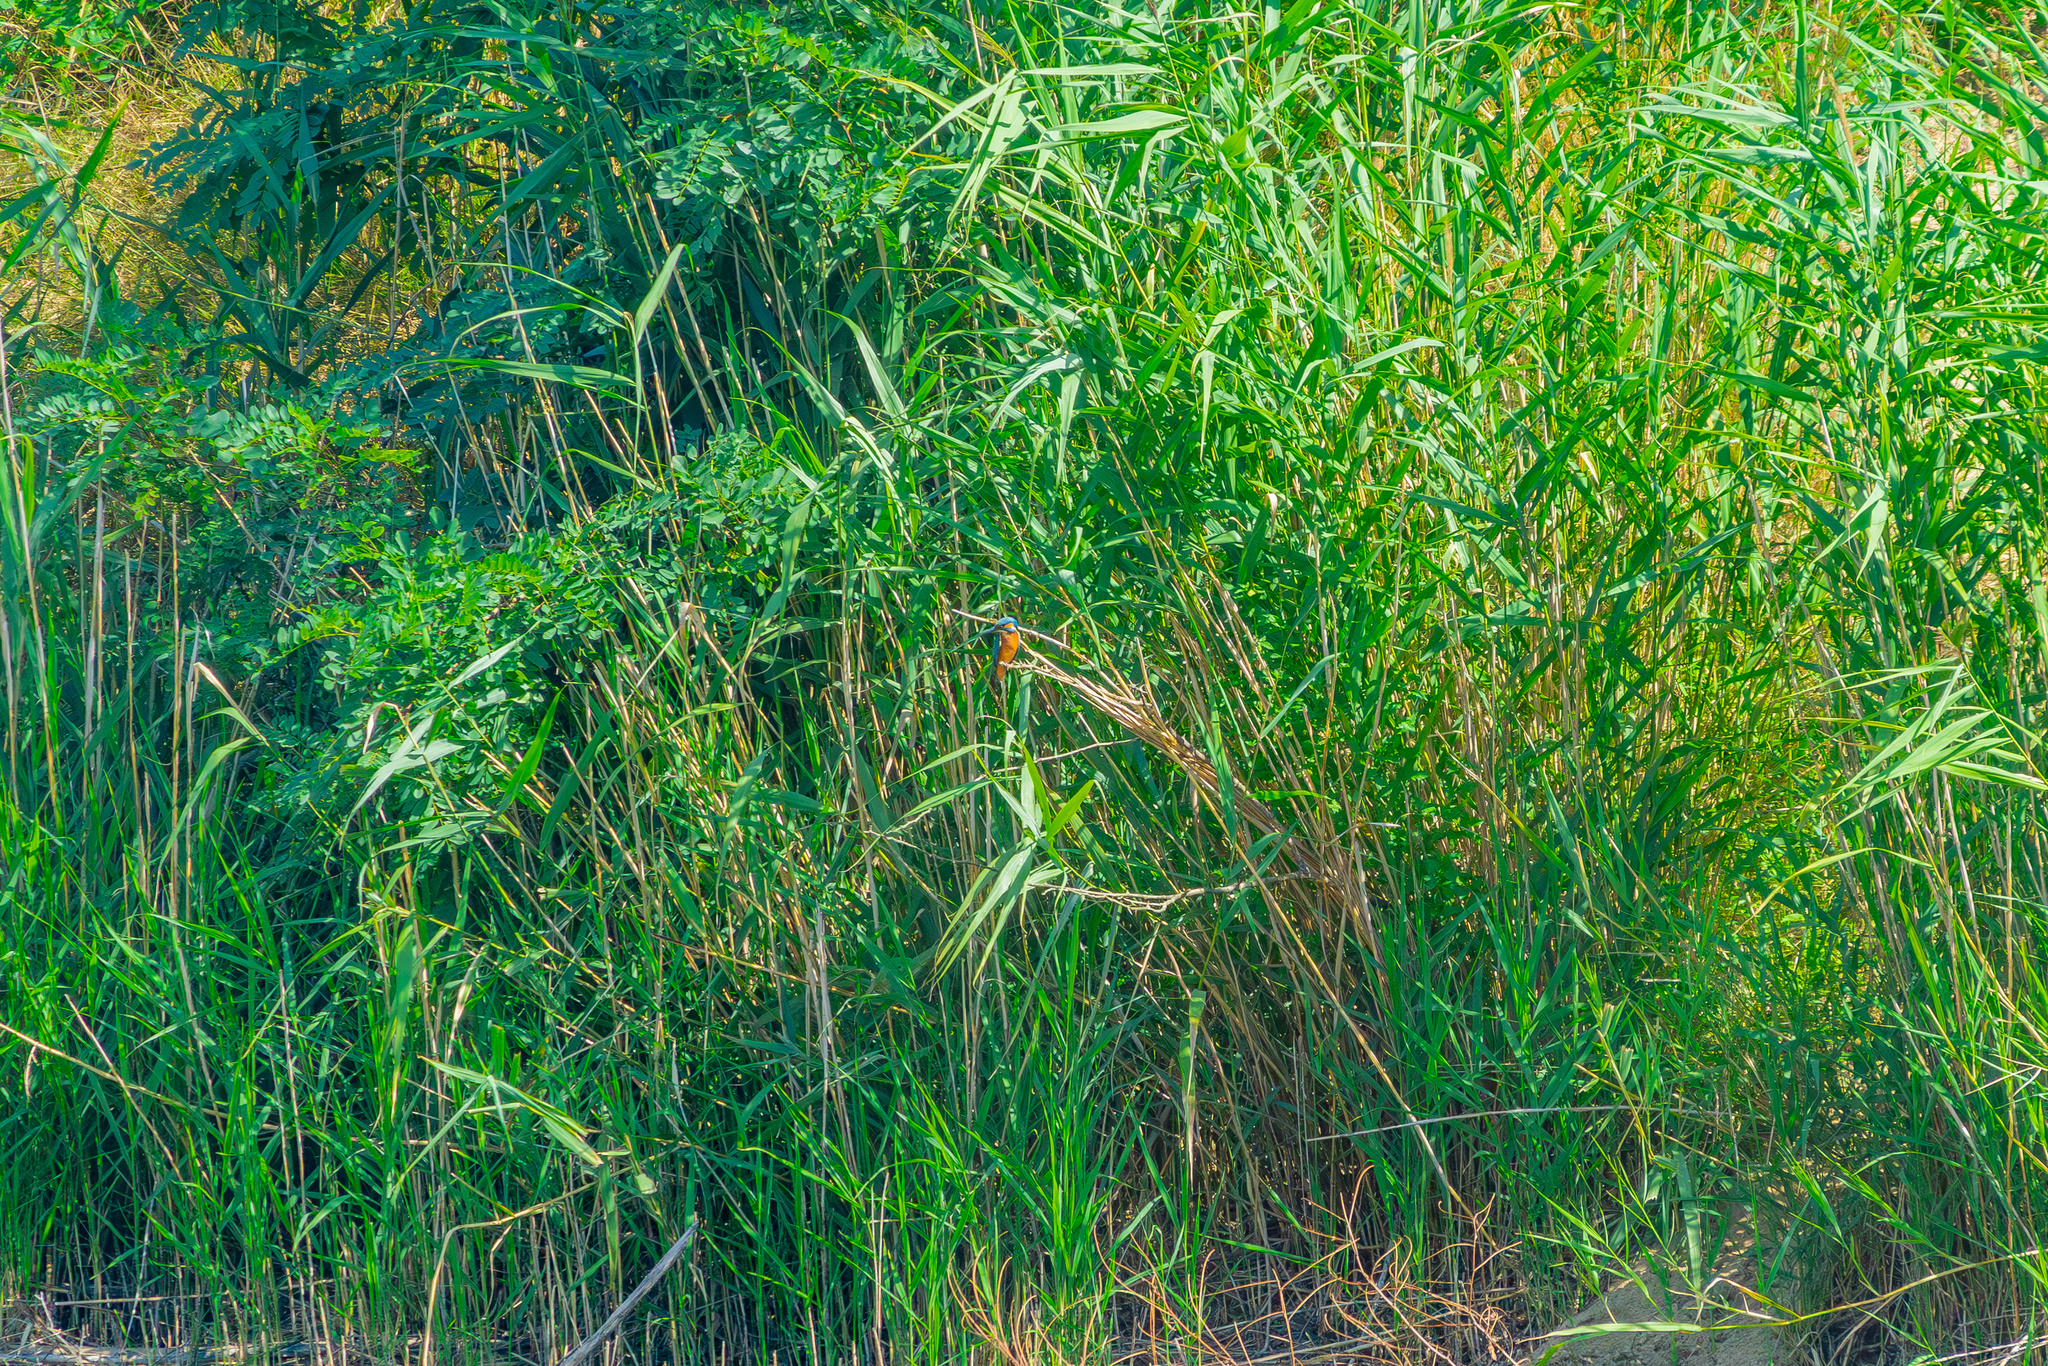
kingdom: Animalia
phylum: Chordata
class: Aves
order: Coraciiformes
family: Alcedinidae
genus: Alcedo
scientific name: Alcedo atthis
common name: Common kingfisher
